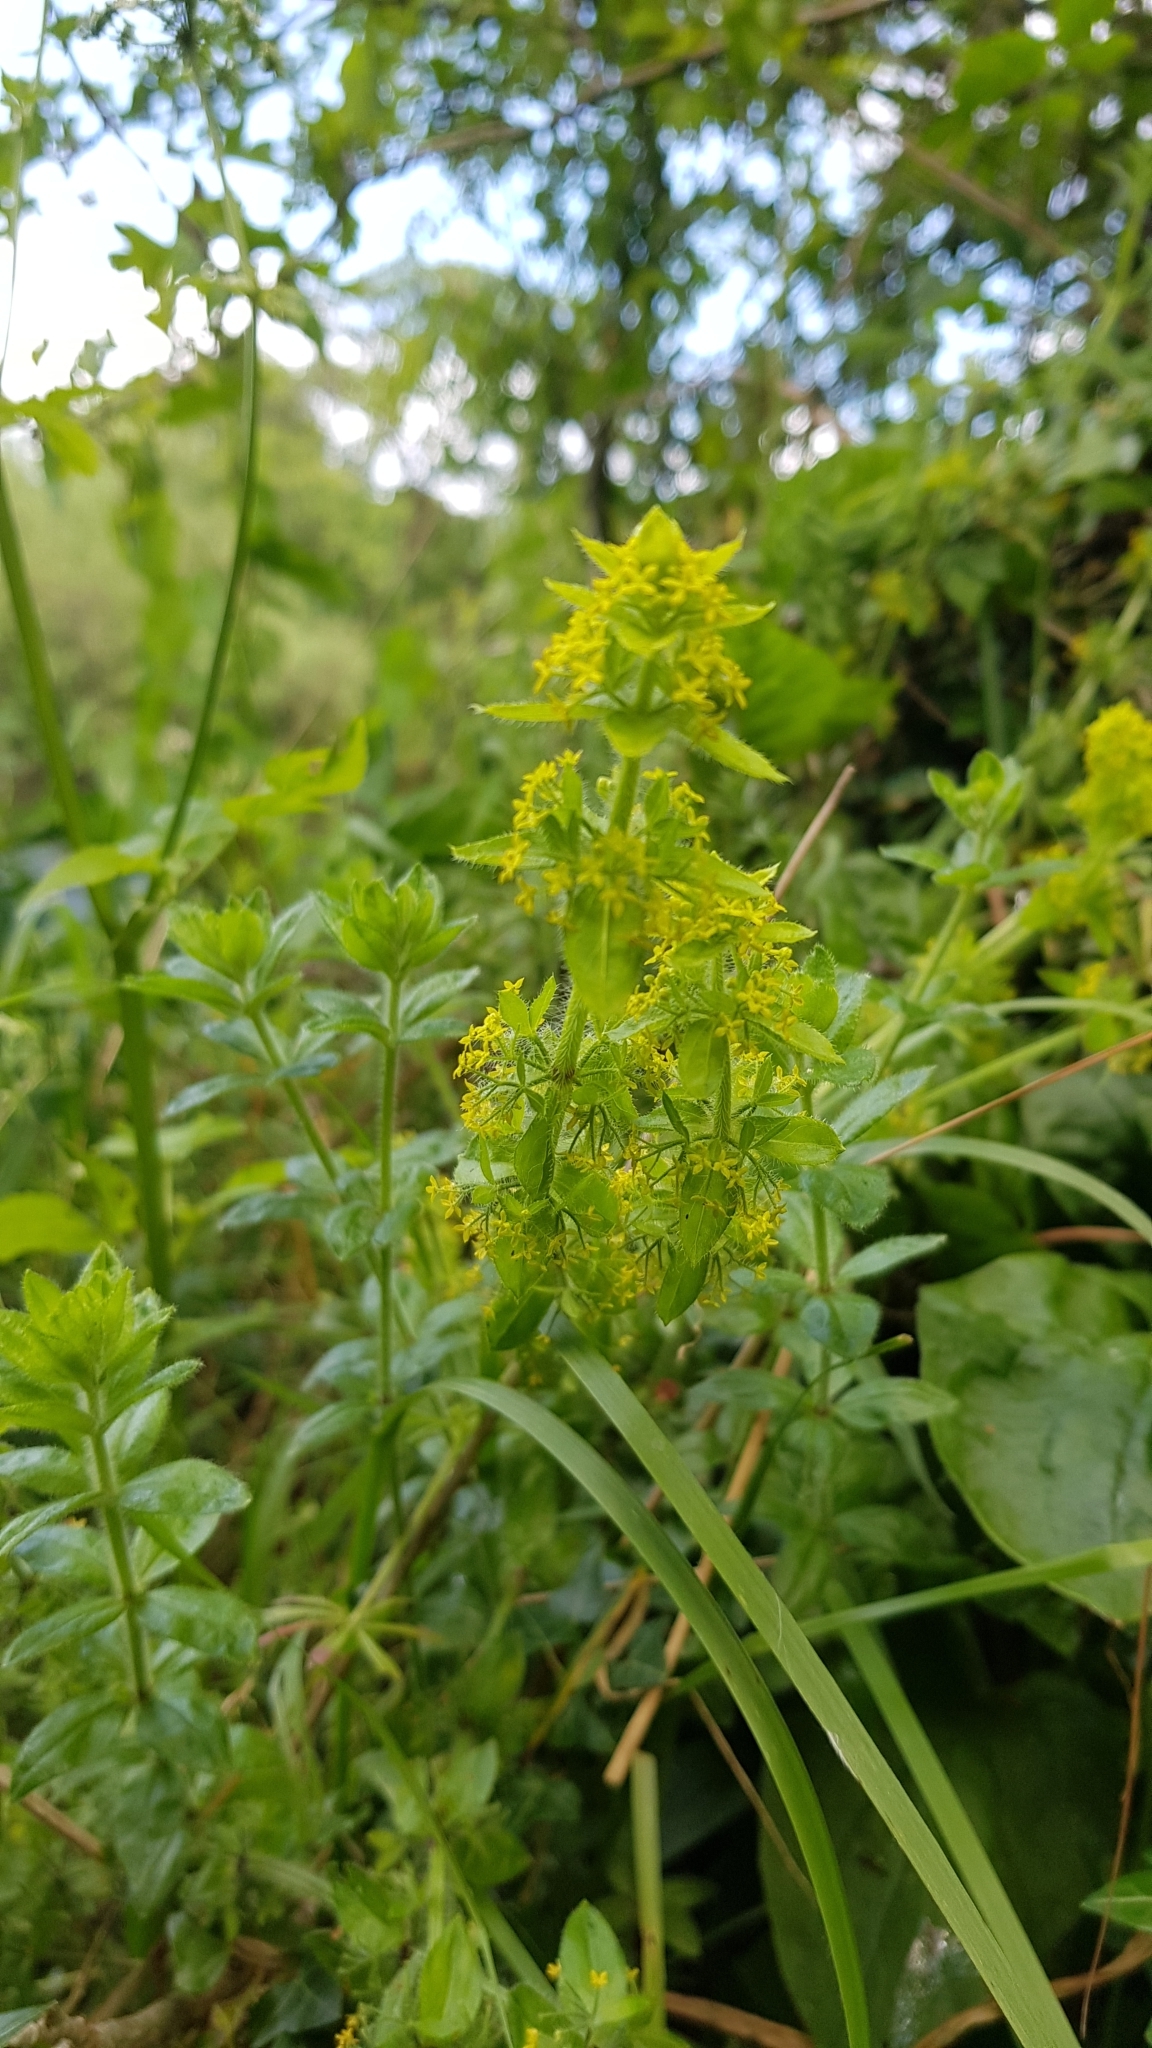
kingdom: Plantae
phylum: Tracheophyta
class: Magnoliopsida
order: Gentianales
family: Rubiaceae
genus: Cruciata
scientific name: Cruciata laevipes
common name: Crosswort
